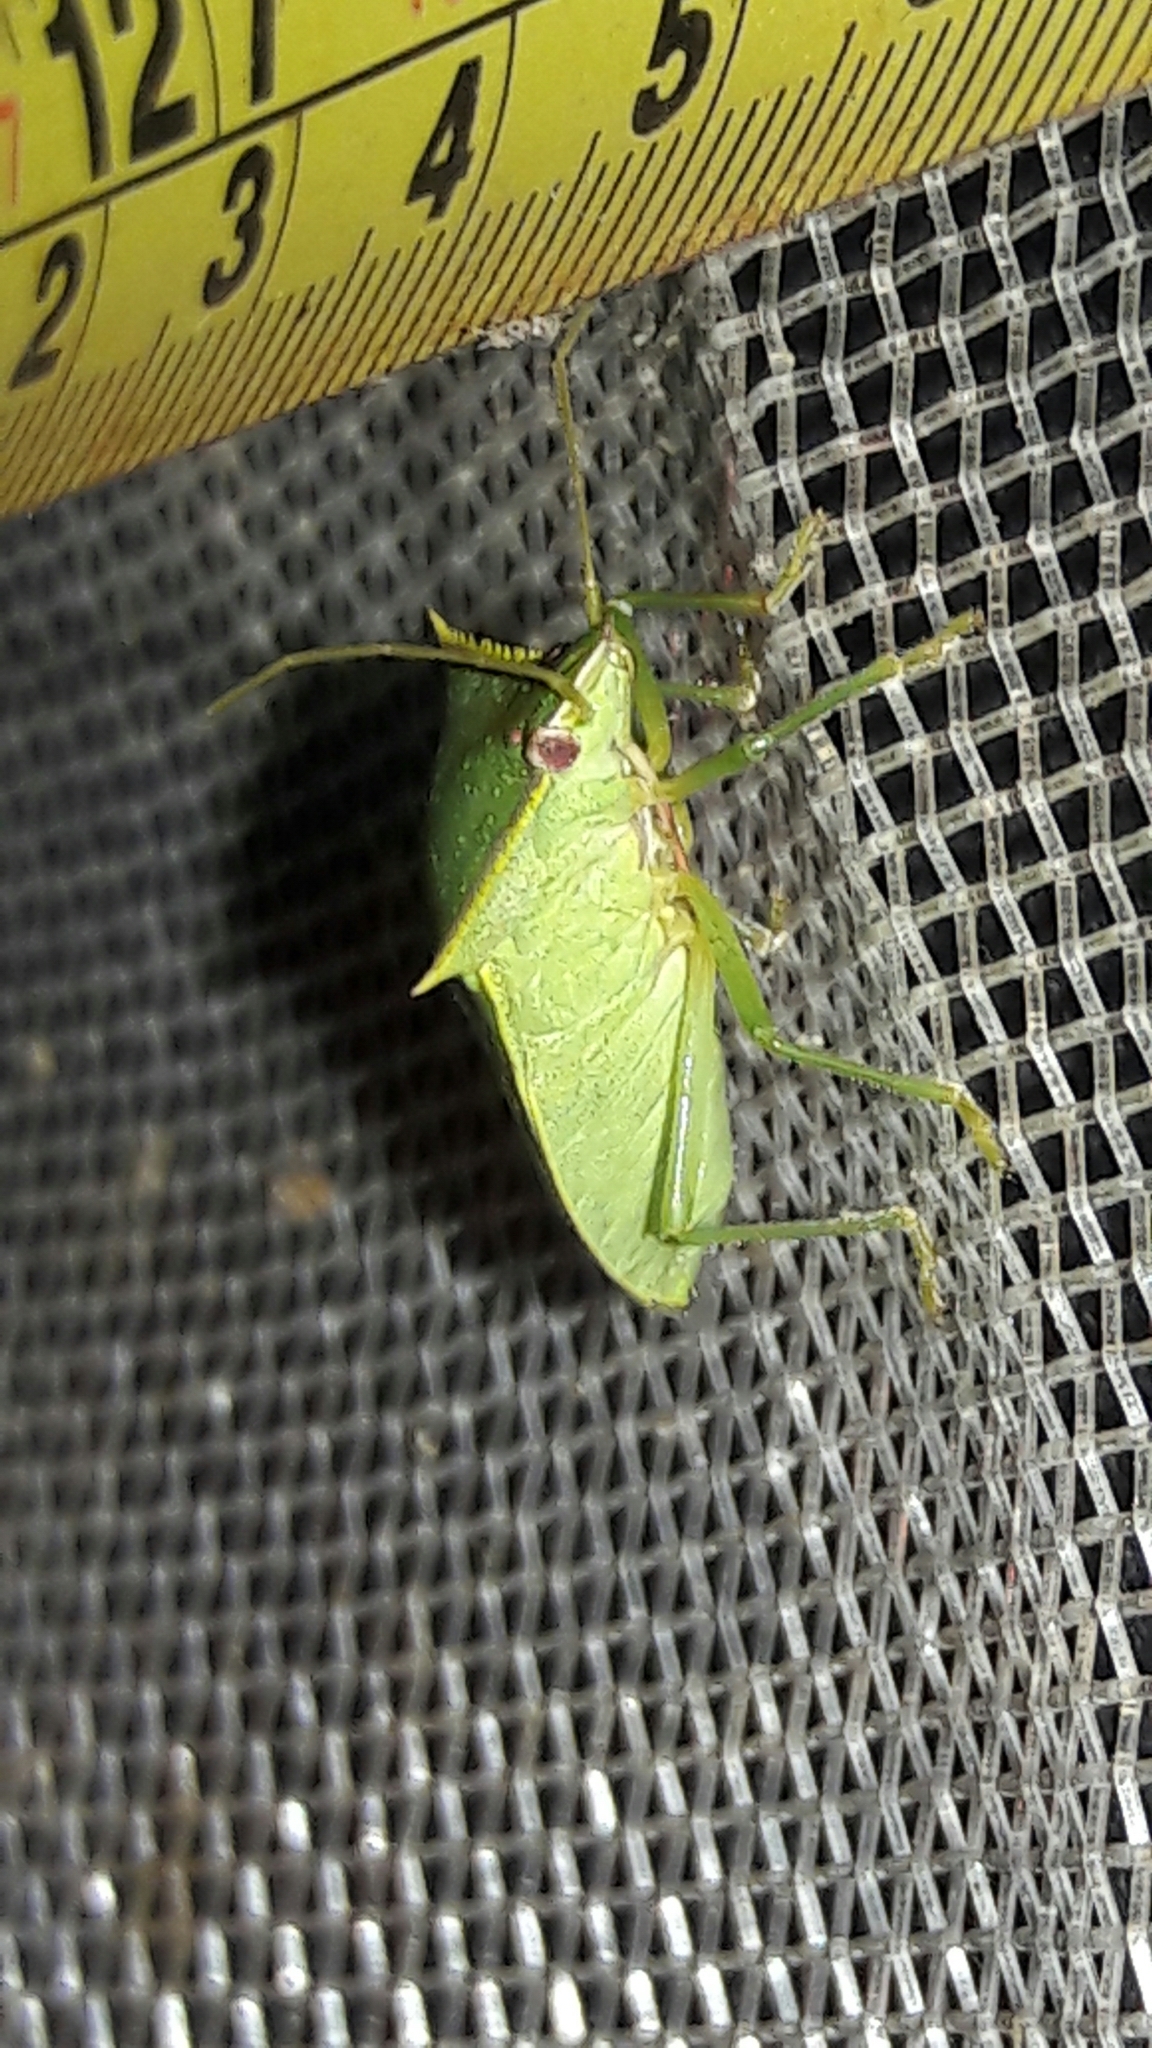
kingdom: Animalia
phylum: Arthropoda
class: Insecta
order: Hemiptera
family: Pentatomidae
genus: Loxa
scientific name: Loxa viridis
